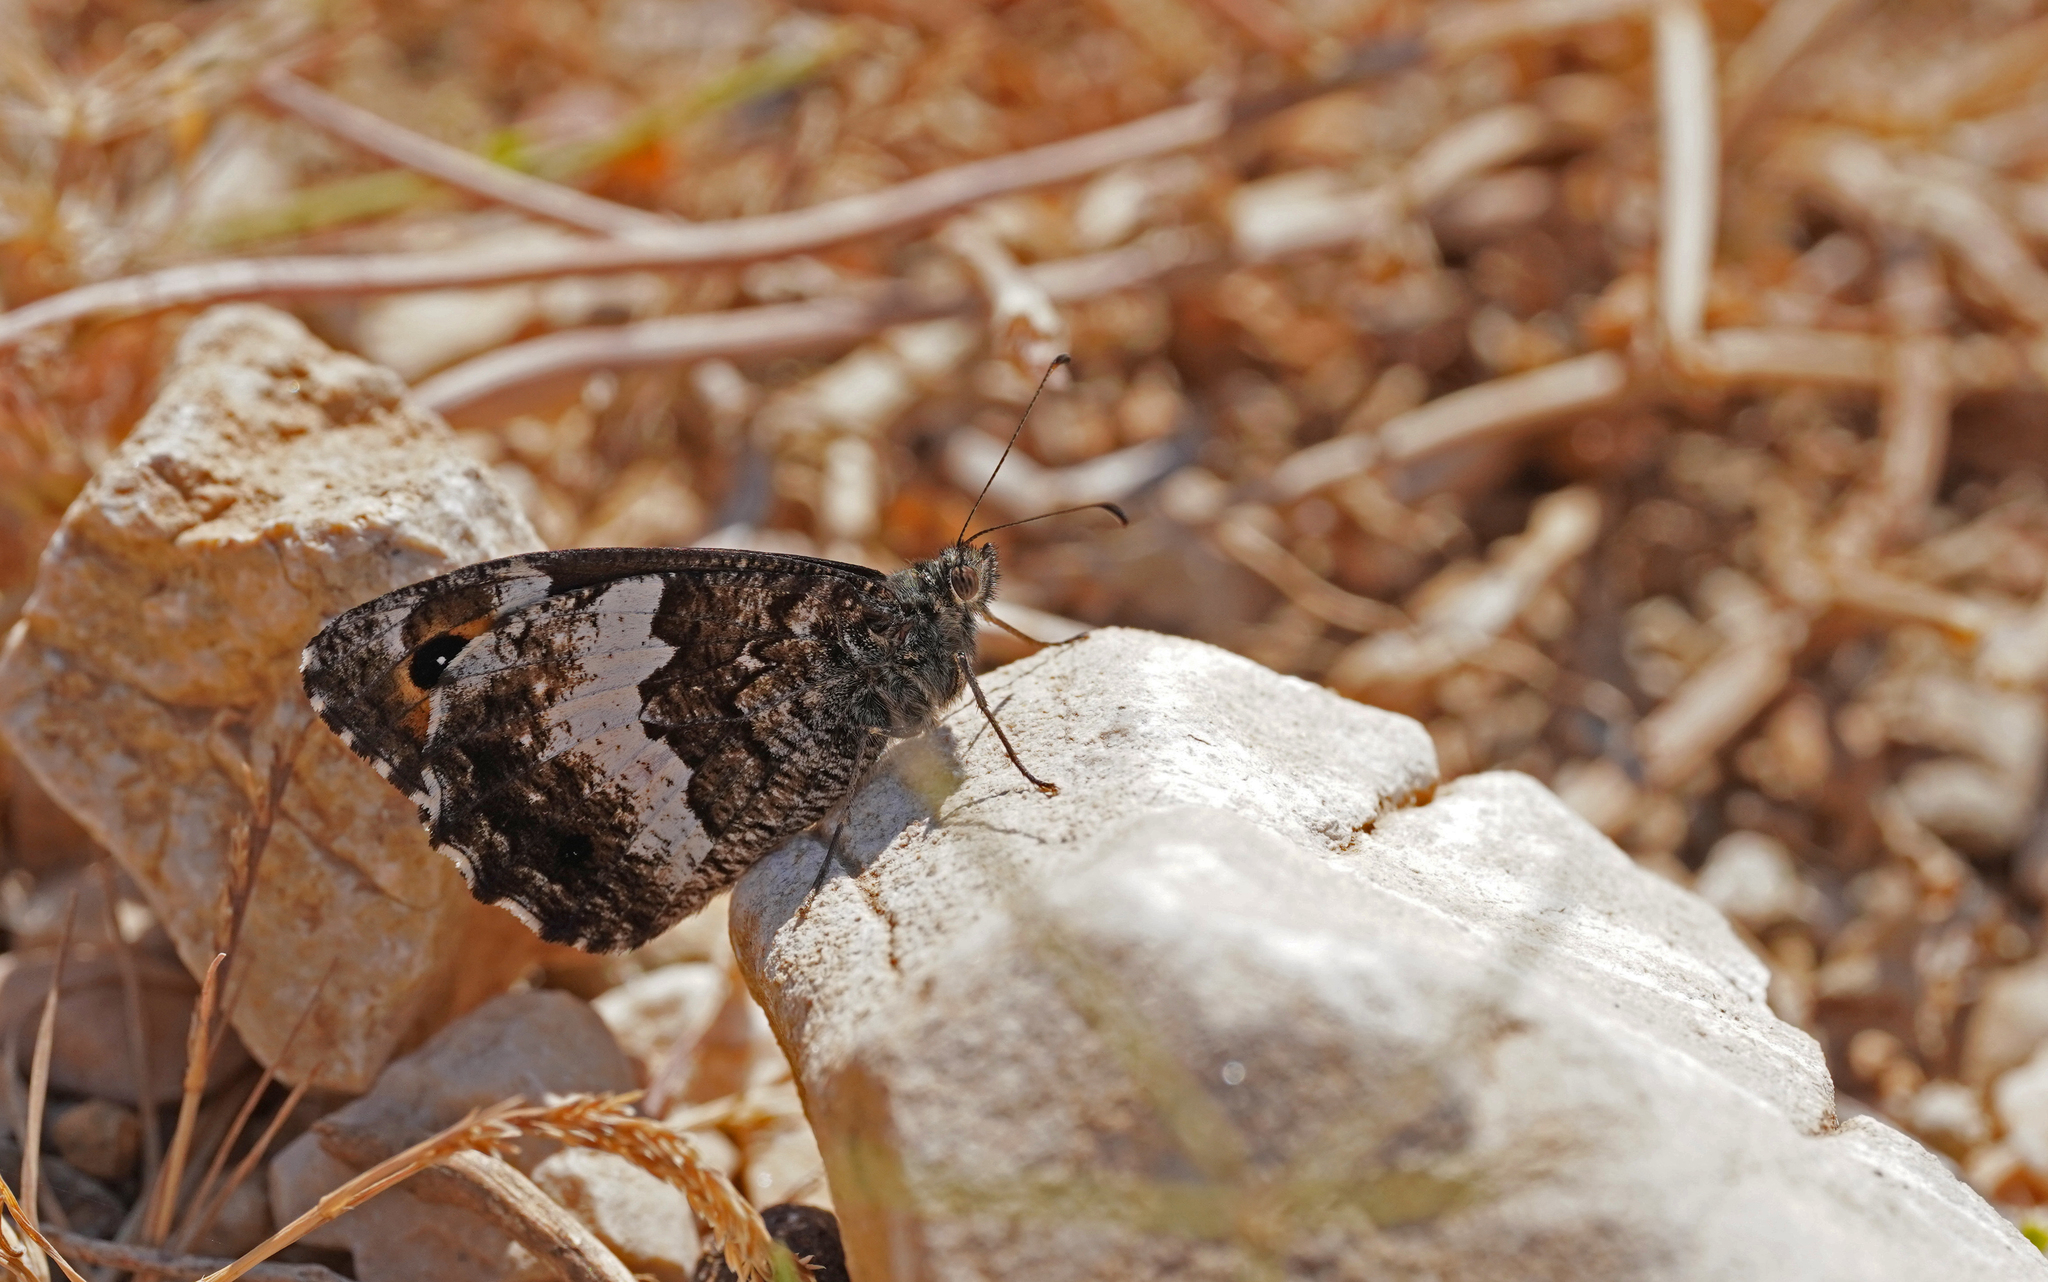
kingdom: Animalia
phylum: Arthropoda
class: Insecta
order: Lepidoptera
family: Nymphalidae
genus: Hipparchia
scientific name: Hipparchia neomiris
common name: Corsican grayling
